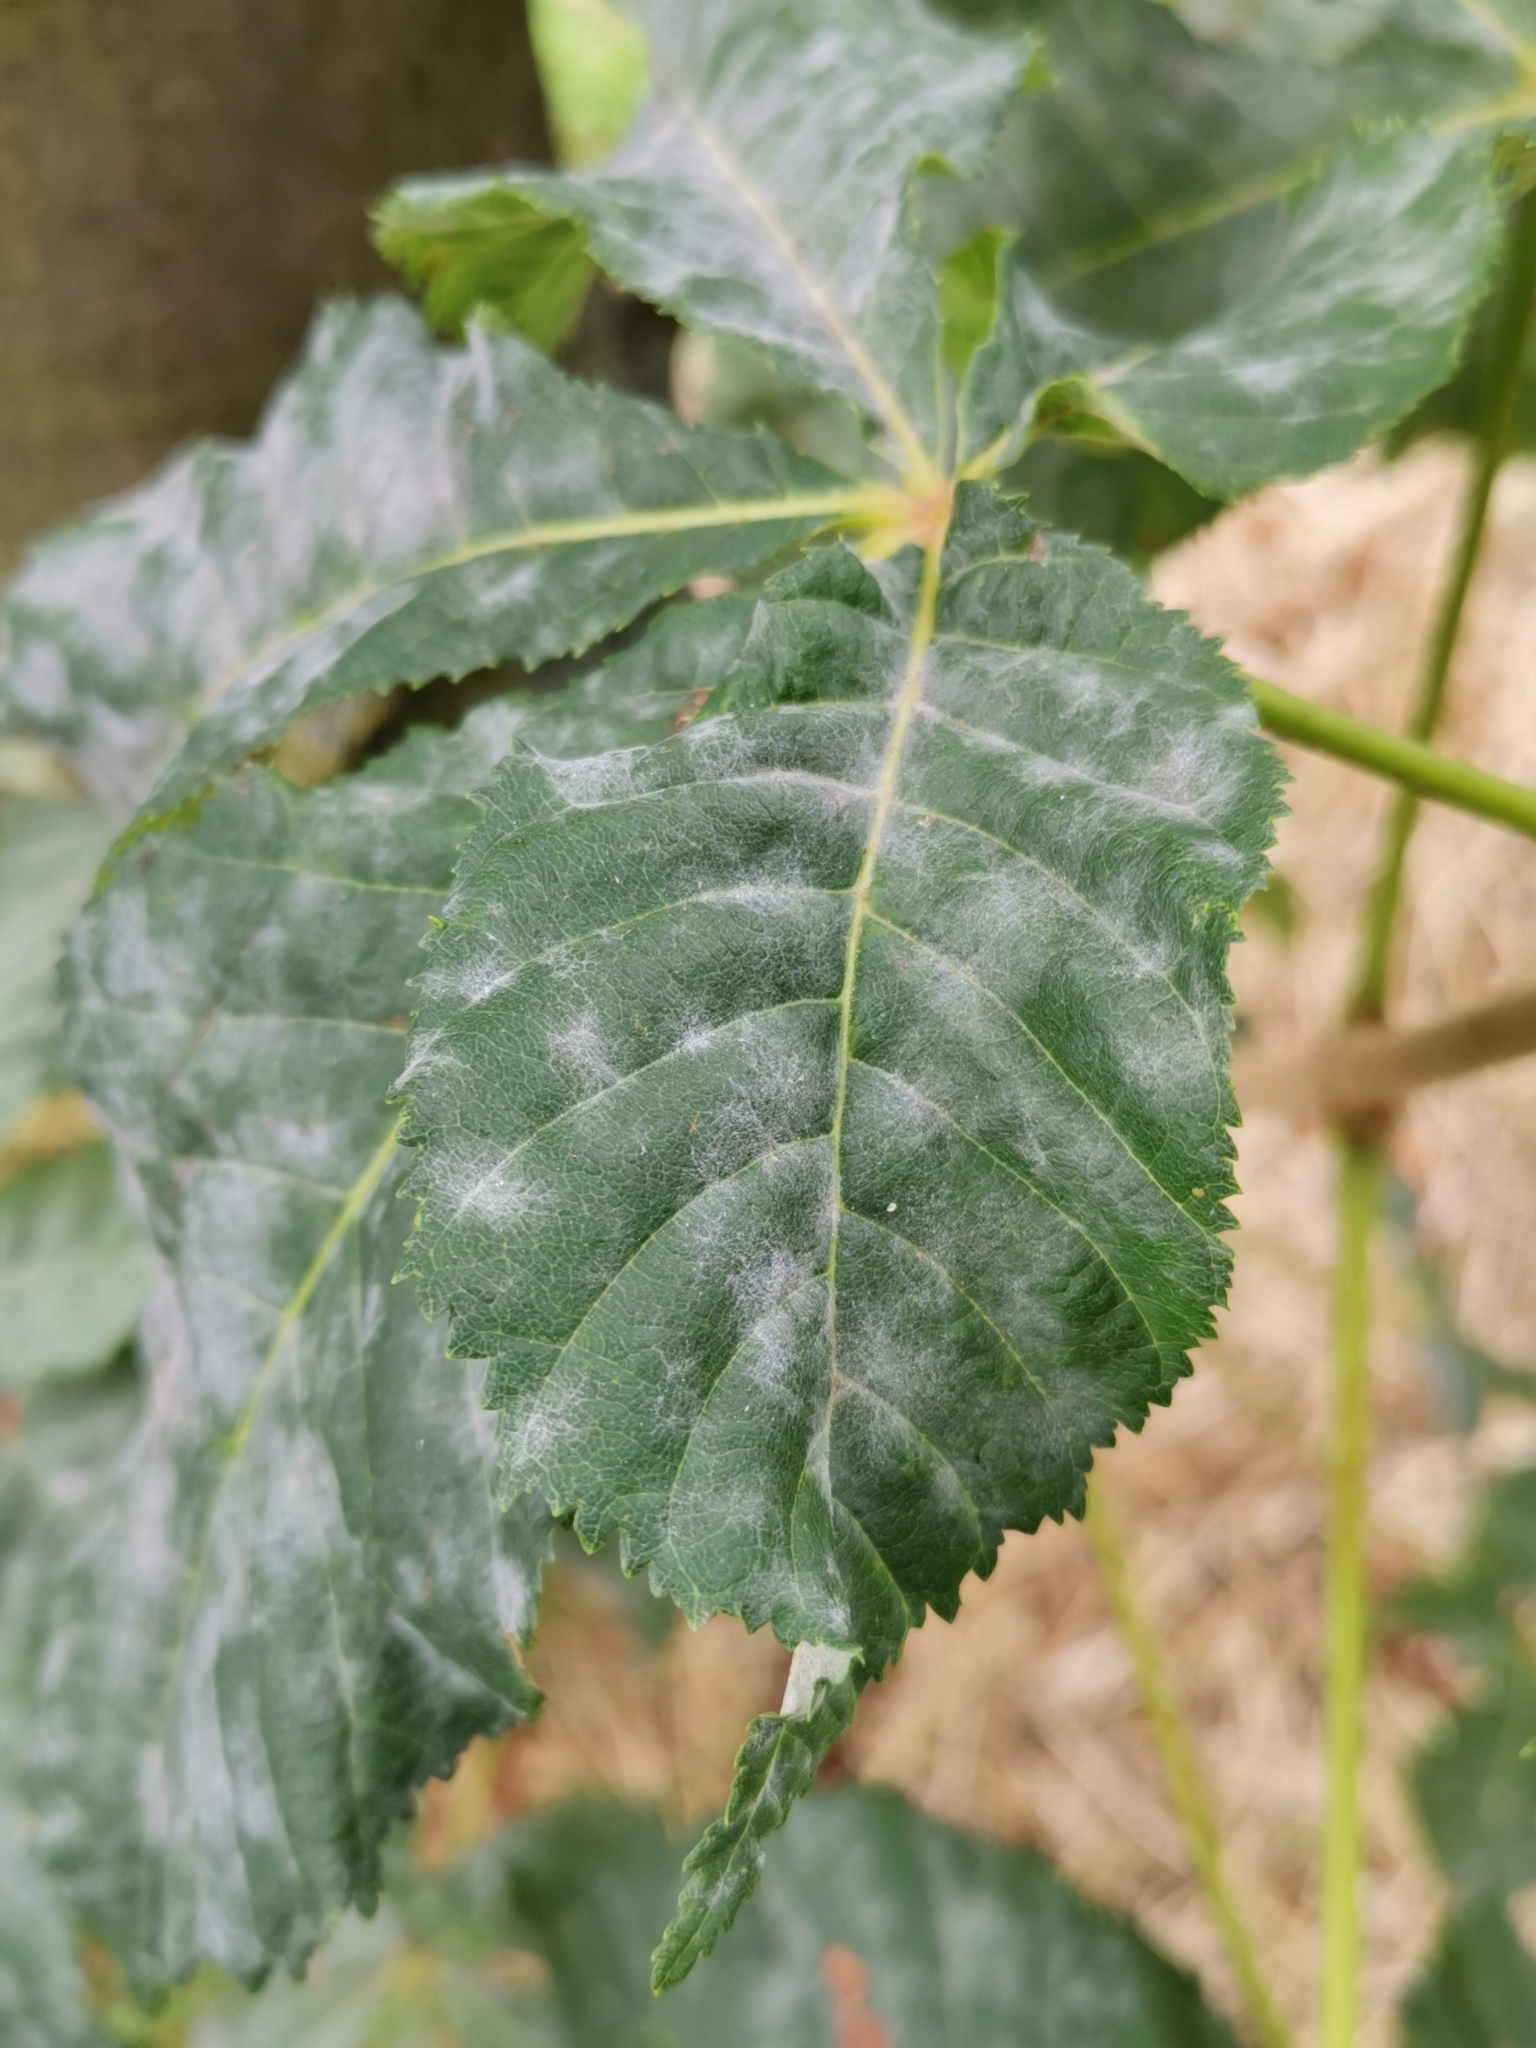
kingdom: Fungi
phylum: Ascomycota
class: Leotiomycetes
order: Helotiales
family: Erysiphaceae
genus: Erysiphe
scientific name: Erysiphe flexuosa
